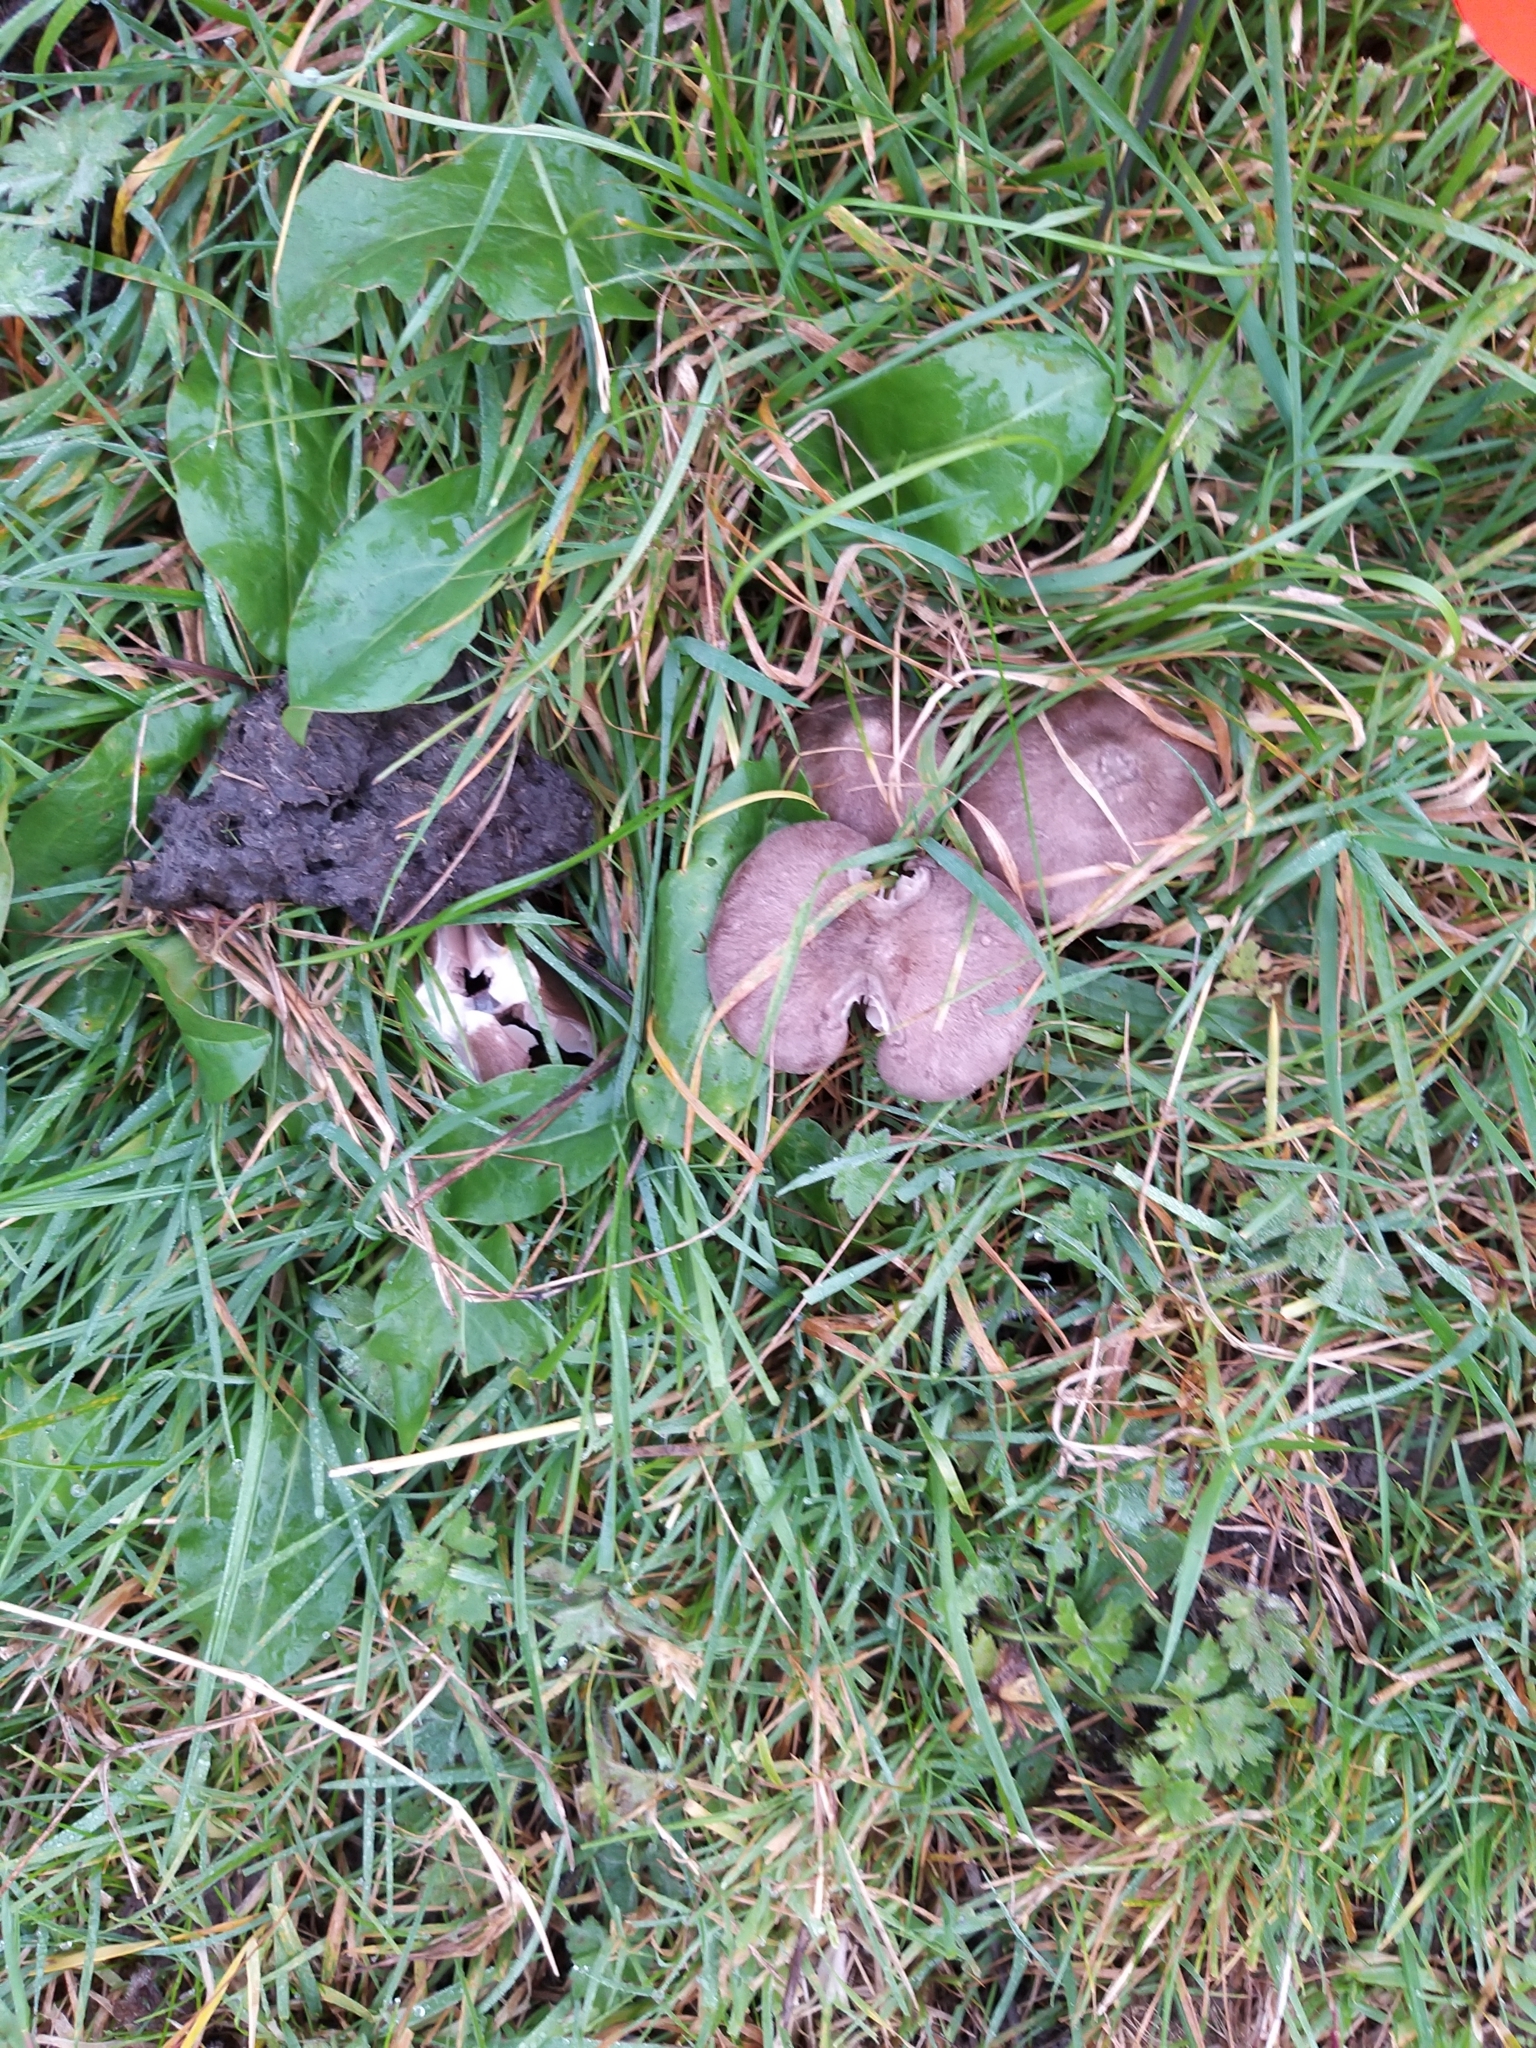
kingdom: Fungi
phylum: Basidiomycota
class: Agaricomycetes
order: Agaricales
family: Entolomataceae
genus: Entoloma
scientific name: Entoloma porphyrophaeum
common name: Lilac pinkgill
